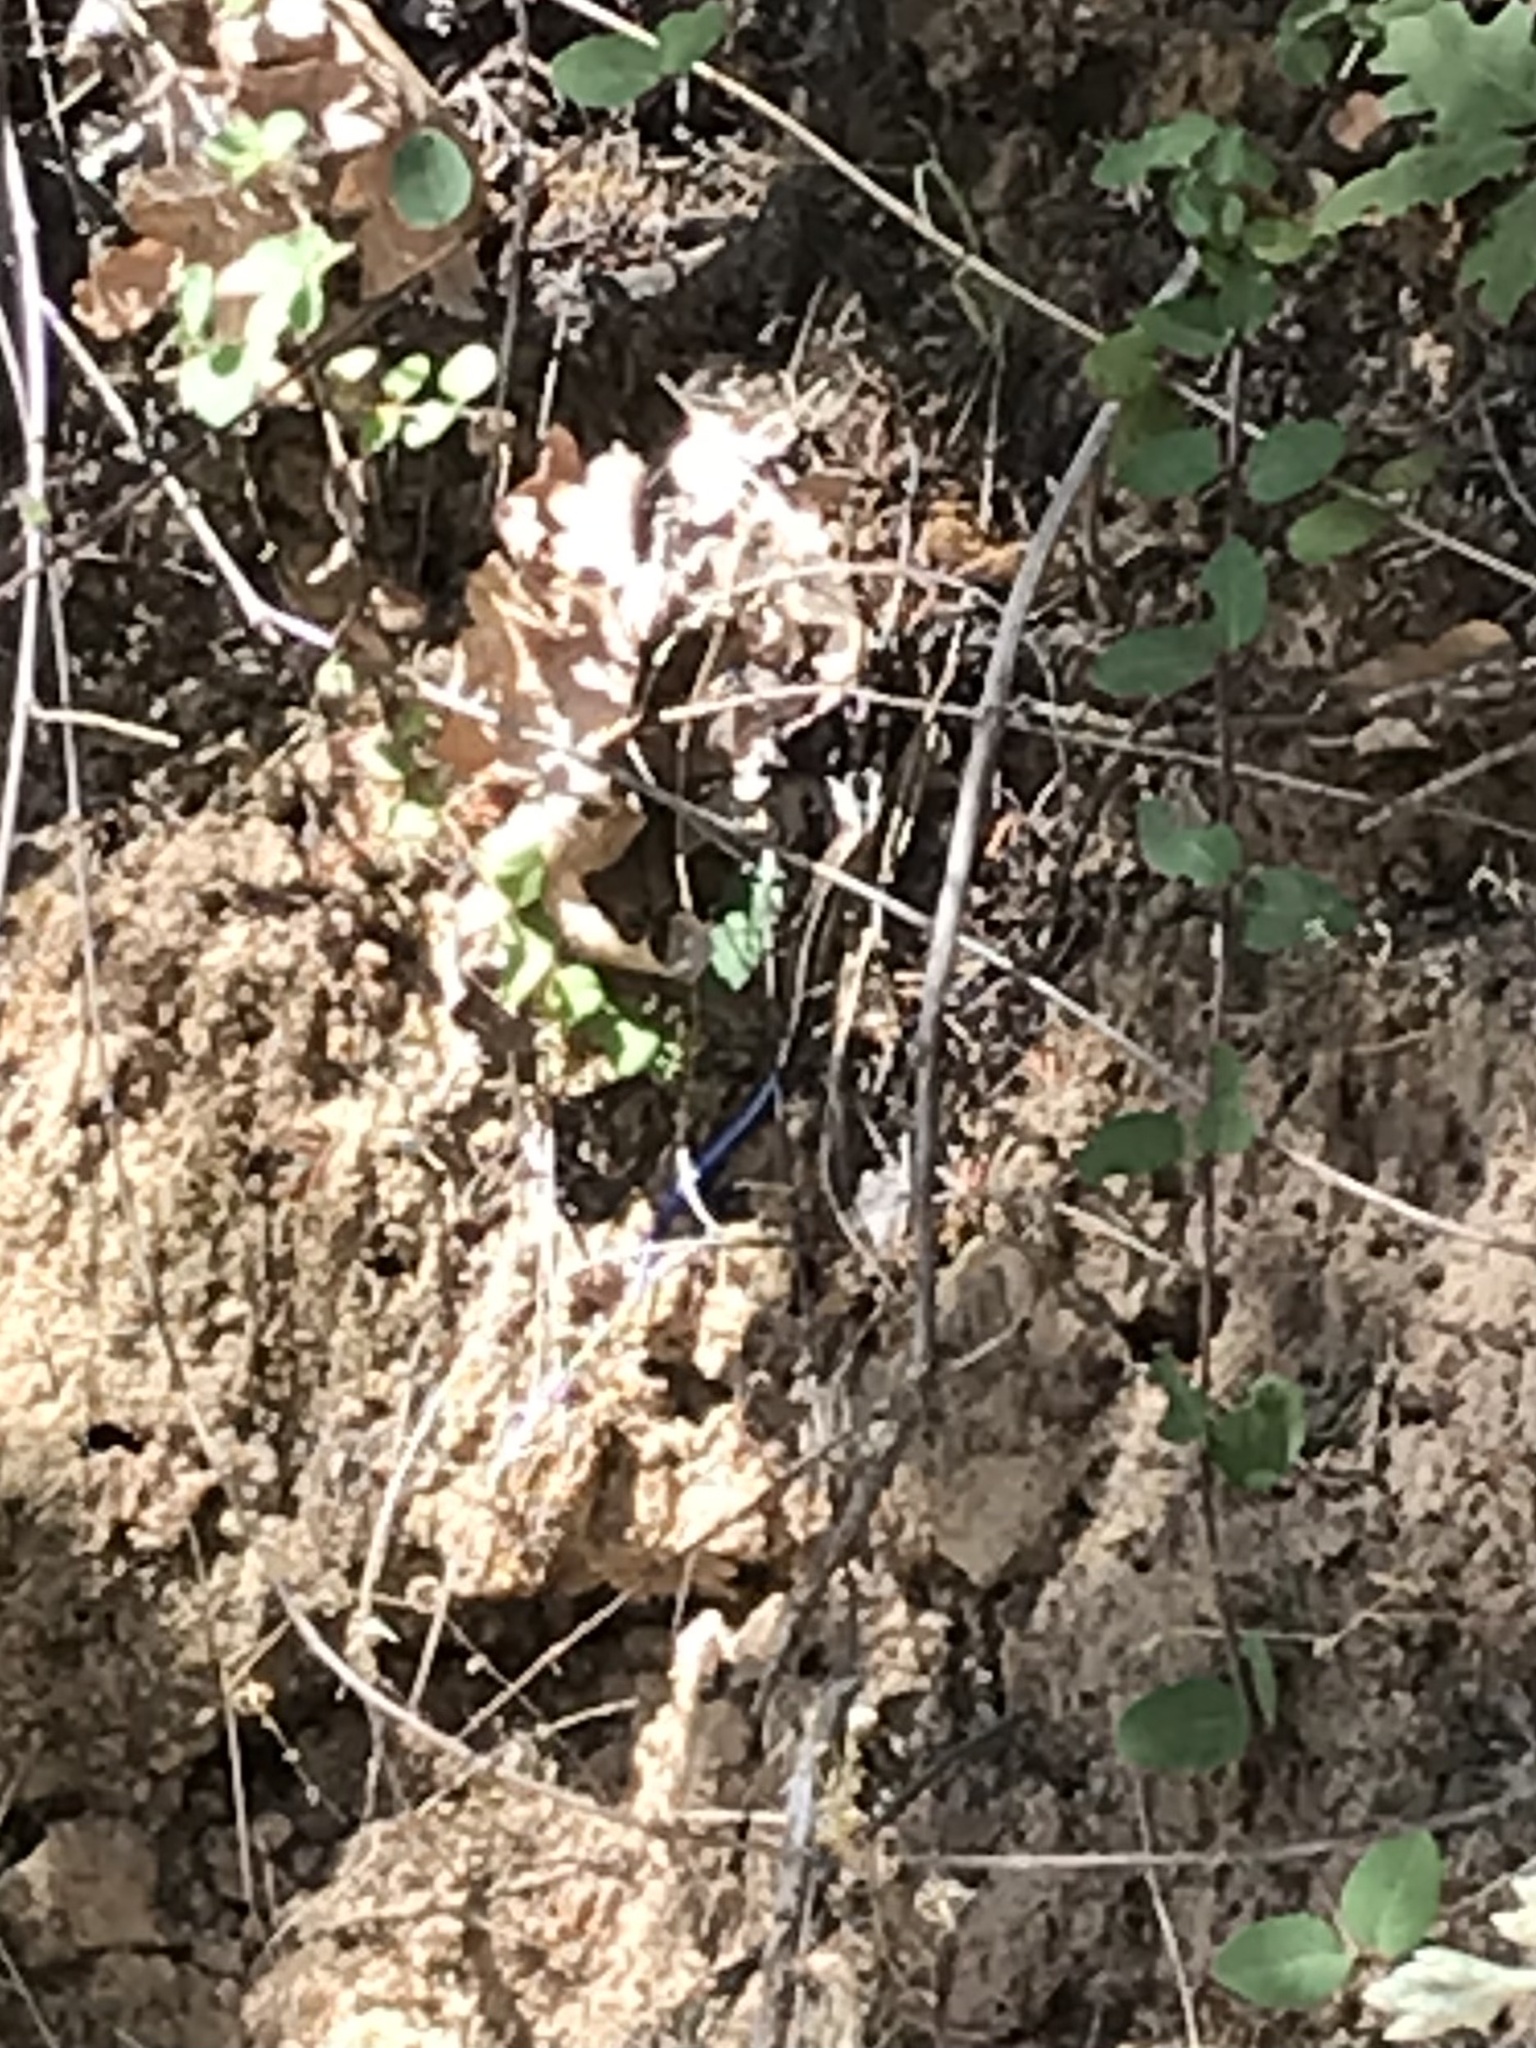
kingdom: Animalia
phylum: Chordata
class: Squamata
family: Scincidae
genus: Plestiodon
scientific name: Plestiodon skiltonianus
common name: Coronado island skink [interparietalis]
